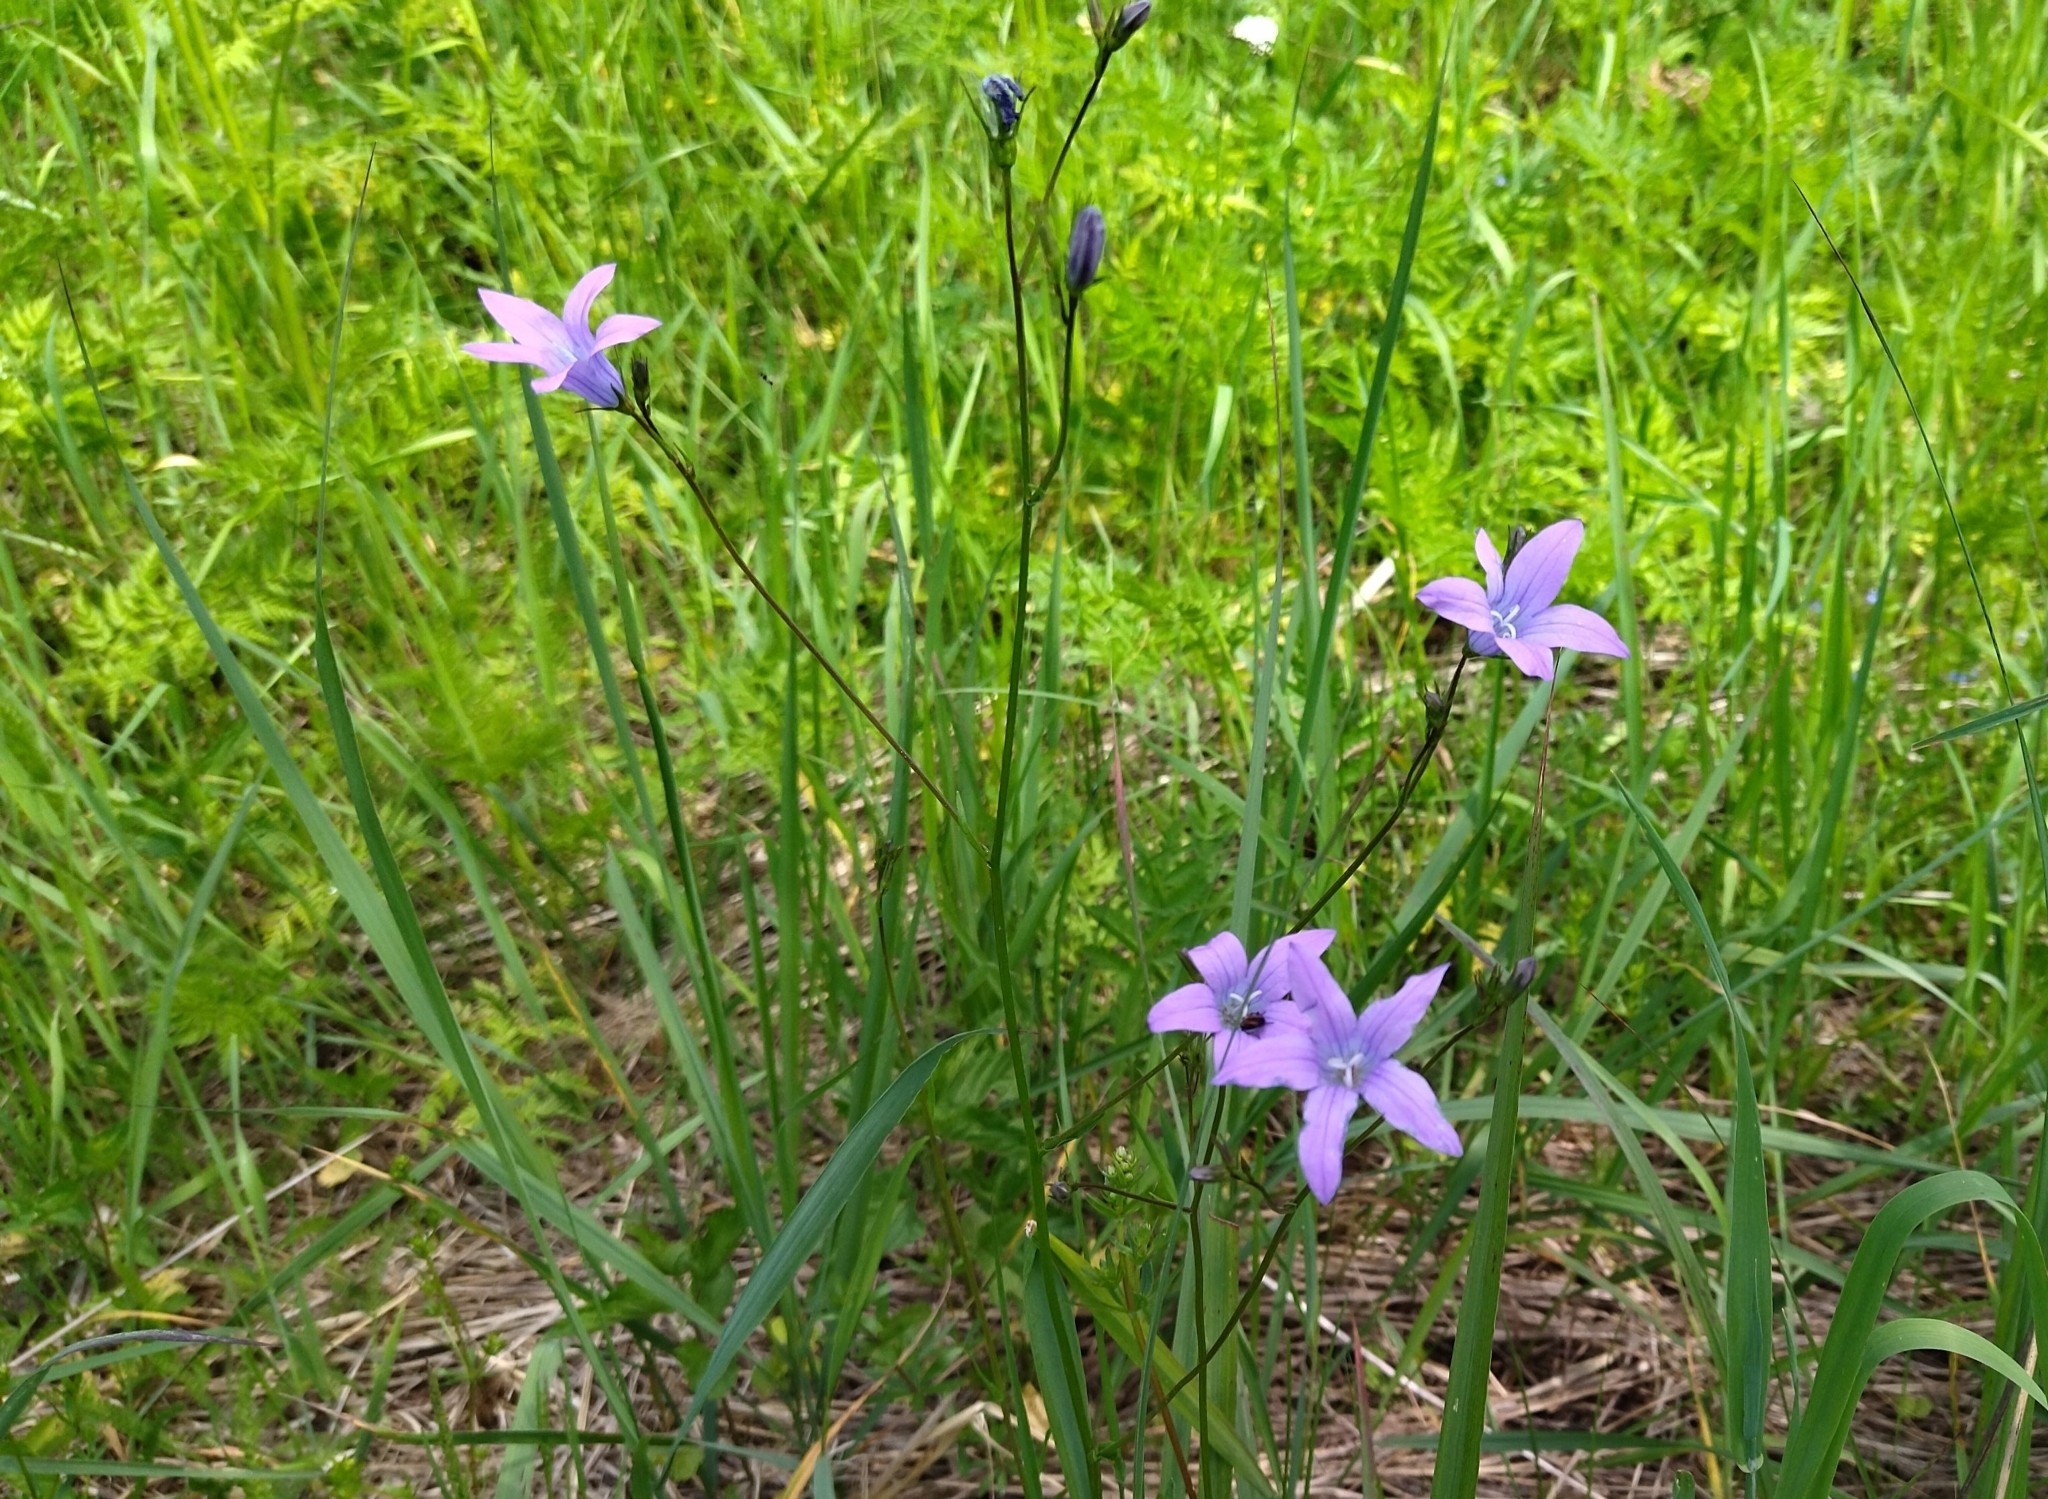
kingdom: Plantae
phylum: Tracheophyta
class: Magnoliopsida
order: Asterales
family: Campanulaceae
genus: Campanula
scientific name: Campanula patula
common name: Spreading bellflower
